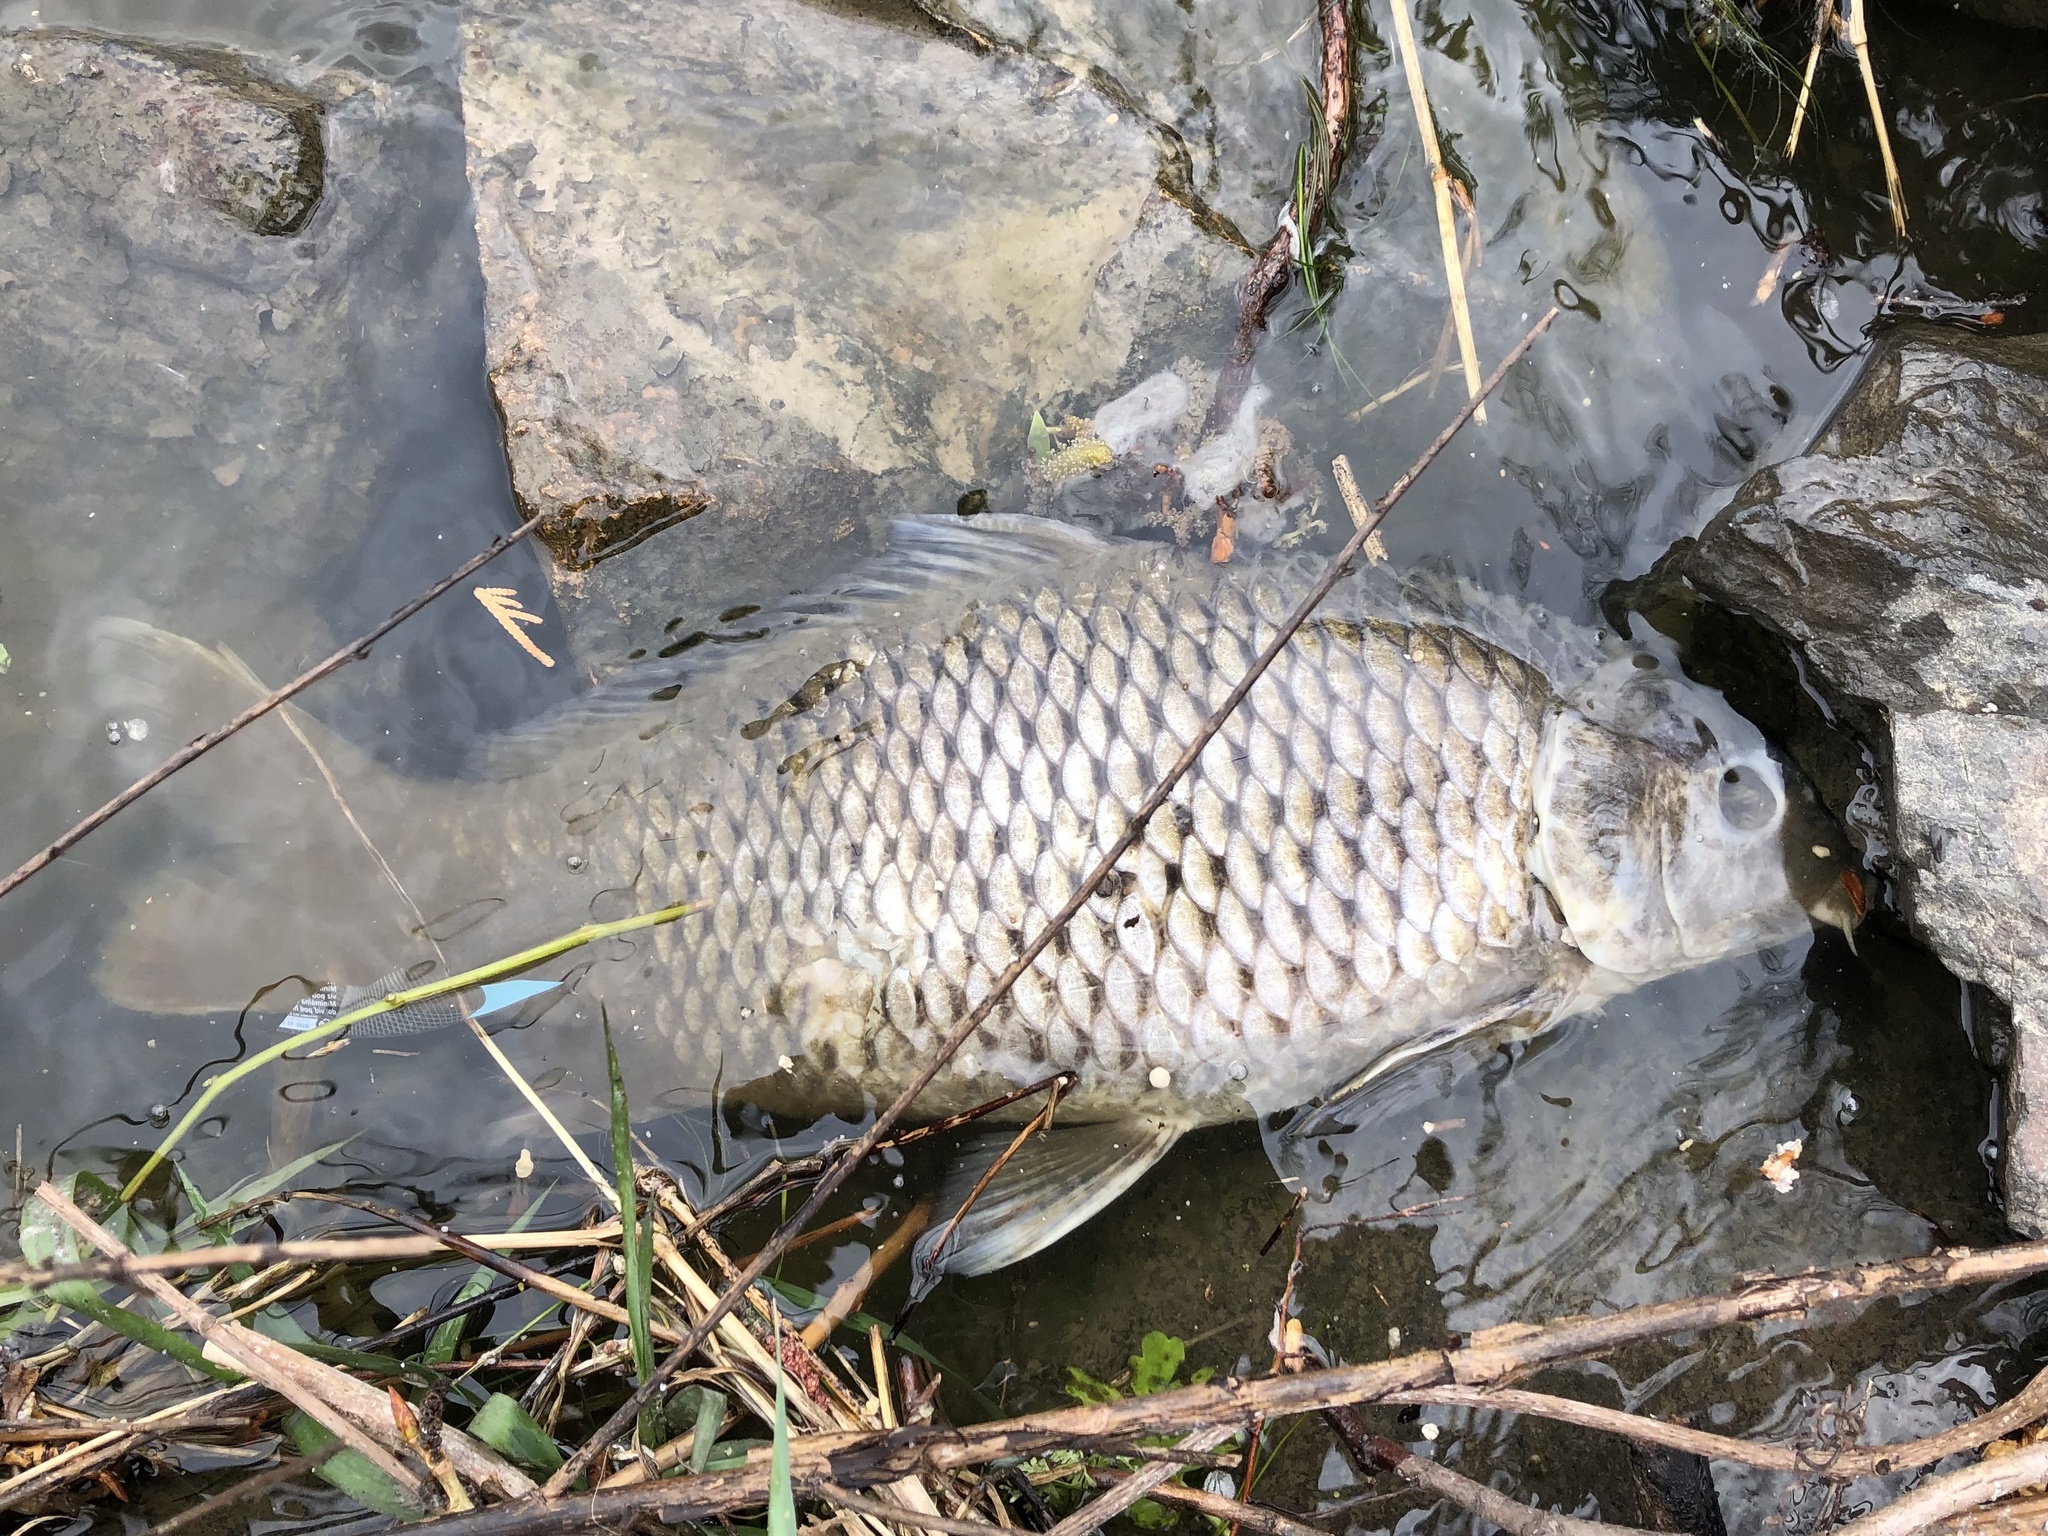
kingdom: Animalia
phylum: Chordata
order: Cypriniformes
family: Cyprinidae
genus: Cyprinus
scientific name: Cyprinus carpio
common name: Common carp
